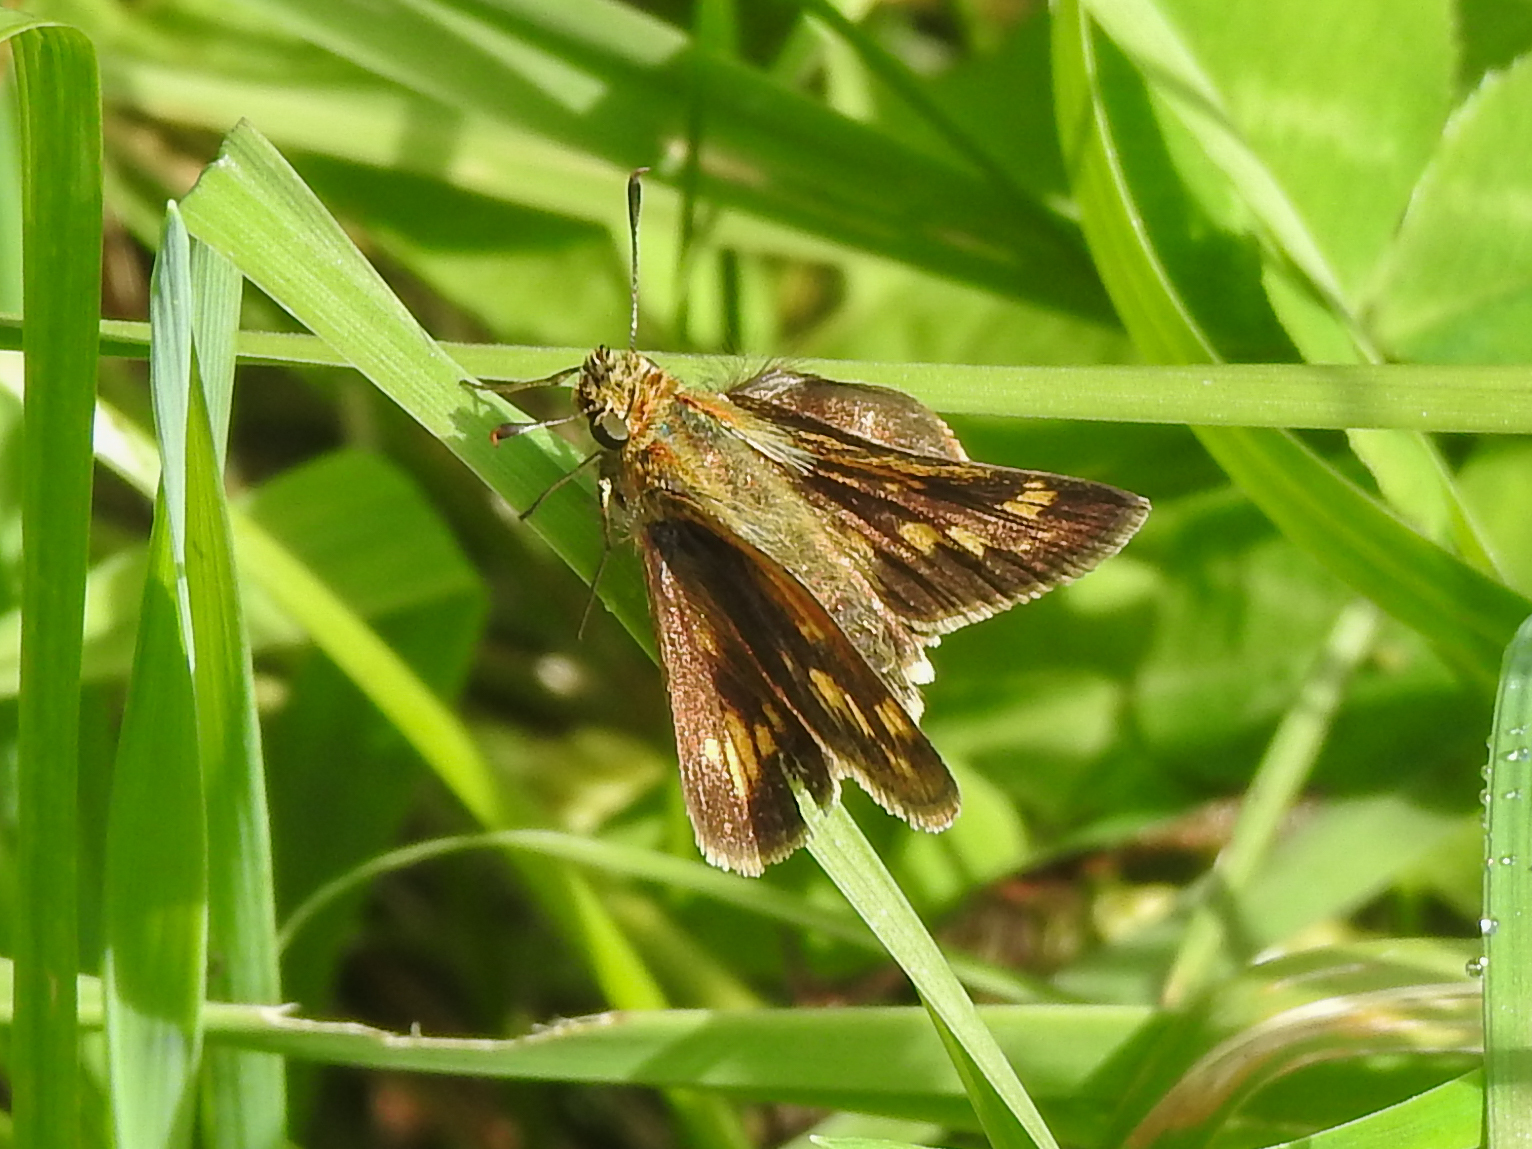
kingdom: Animalia
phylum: Arthropoda
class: Insecta
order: Lepidoptera
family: Hesperiidae
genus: Polites
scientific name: Polites coras
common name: Peck's skipper
